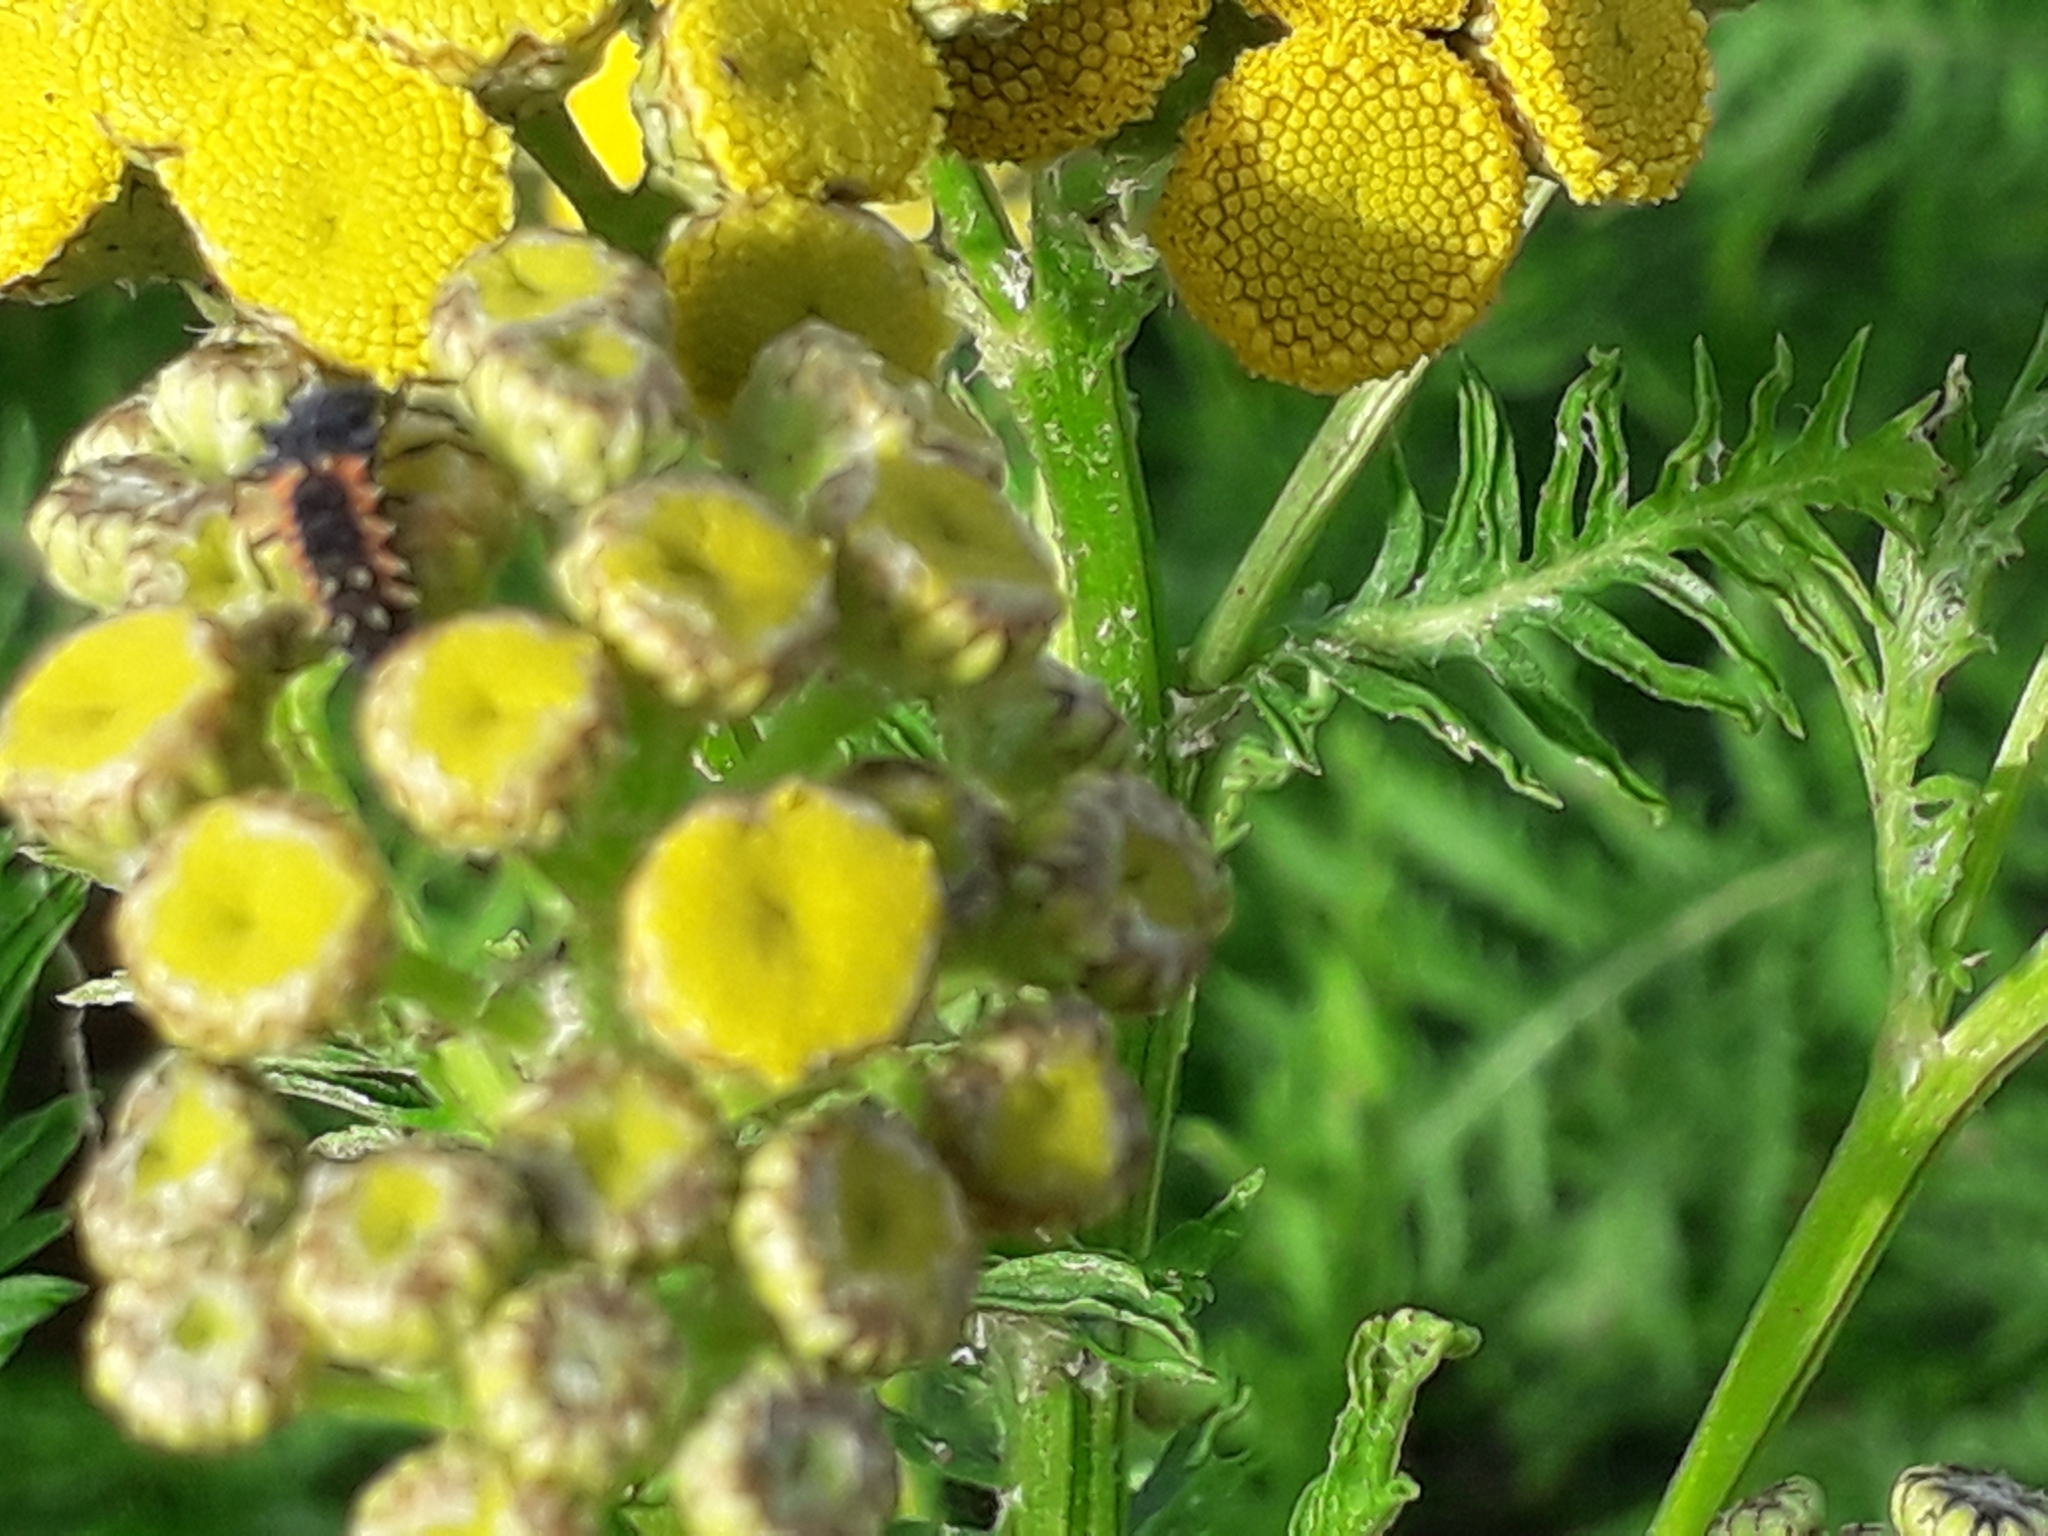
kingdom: Animalia
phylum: Arthropoda
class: Insecta
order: Coleoptera
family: Coccinellidae
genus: Harmonia
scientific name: Harmonia axyridis
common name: Harlequin ladybird
